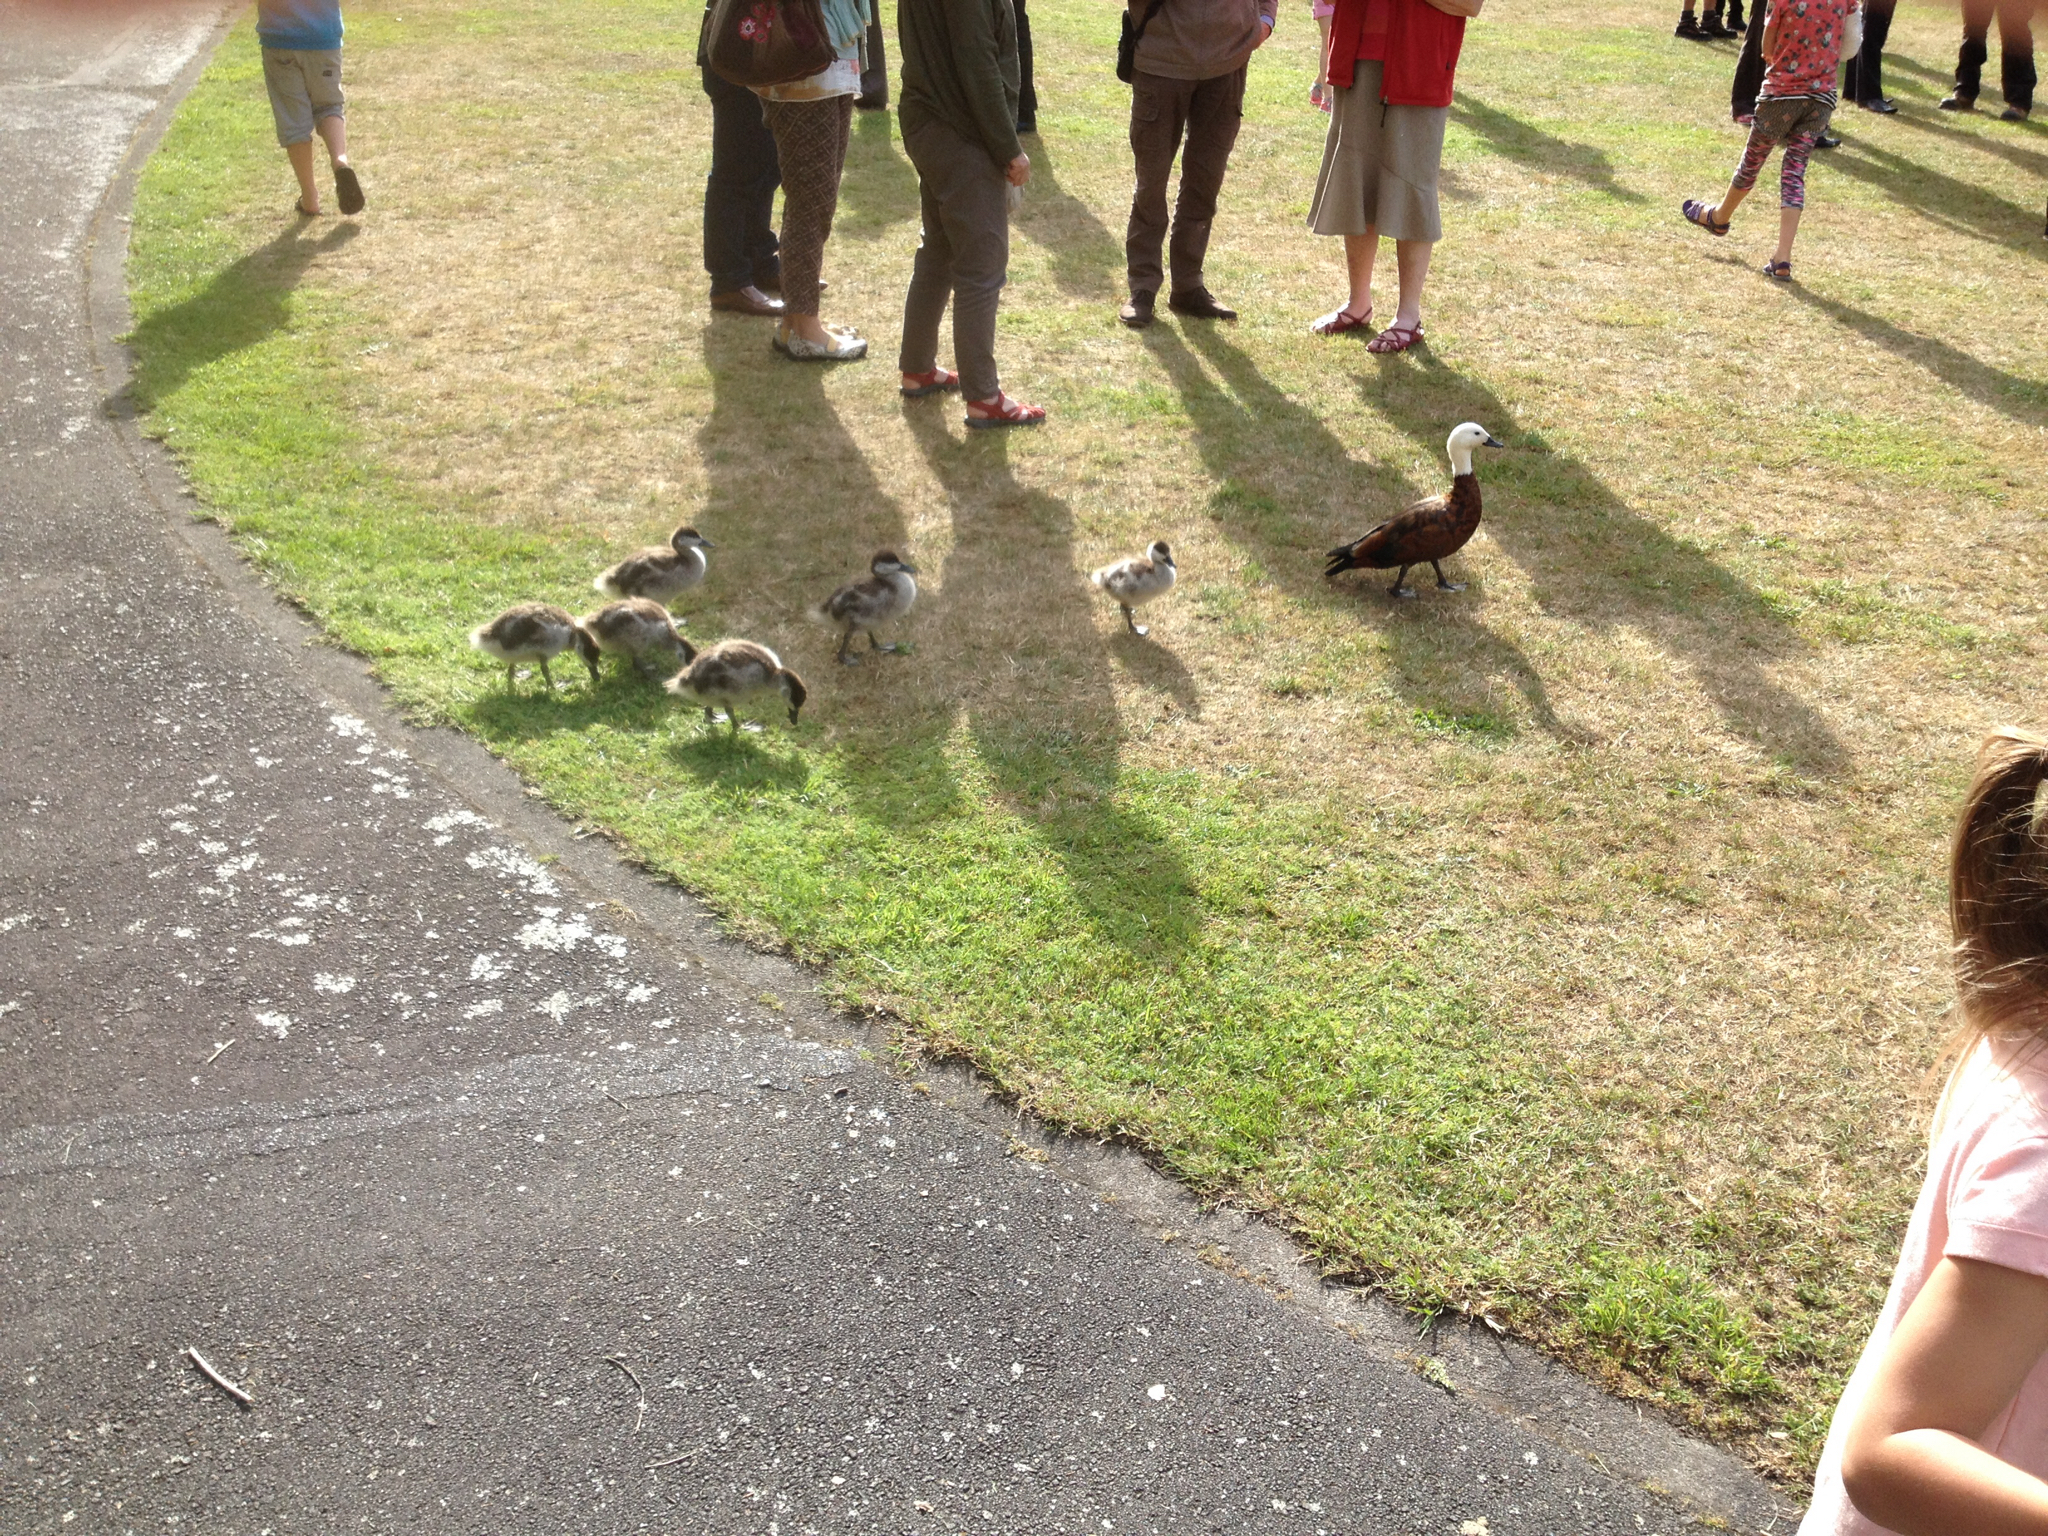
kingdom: Animalia
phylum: Chordata
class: Aves
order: Anseriformes
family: Anatidae
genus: Tadorna
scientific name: Tadorna variegata
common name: Paradise shelduck
